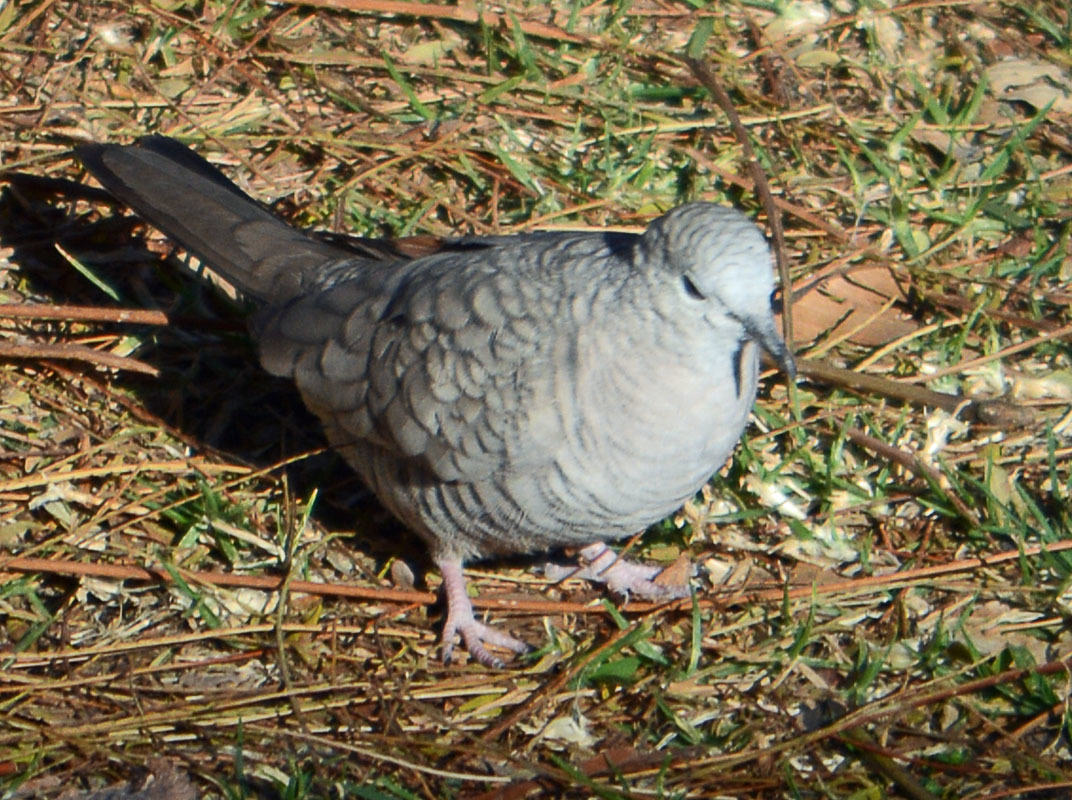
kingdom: Animalia
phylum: Chordata
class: Aves
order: Columbiformes
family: Columbidae
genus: Columbina
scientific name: Columbina inca
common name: Inca dove
